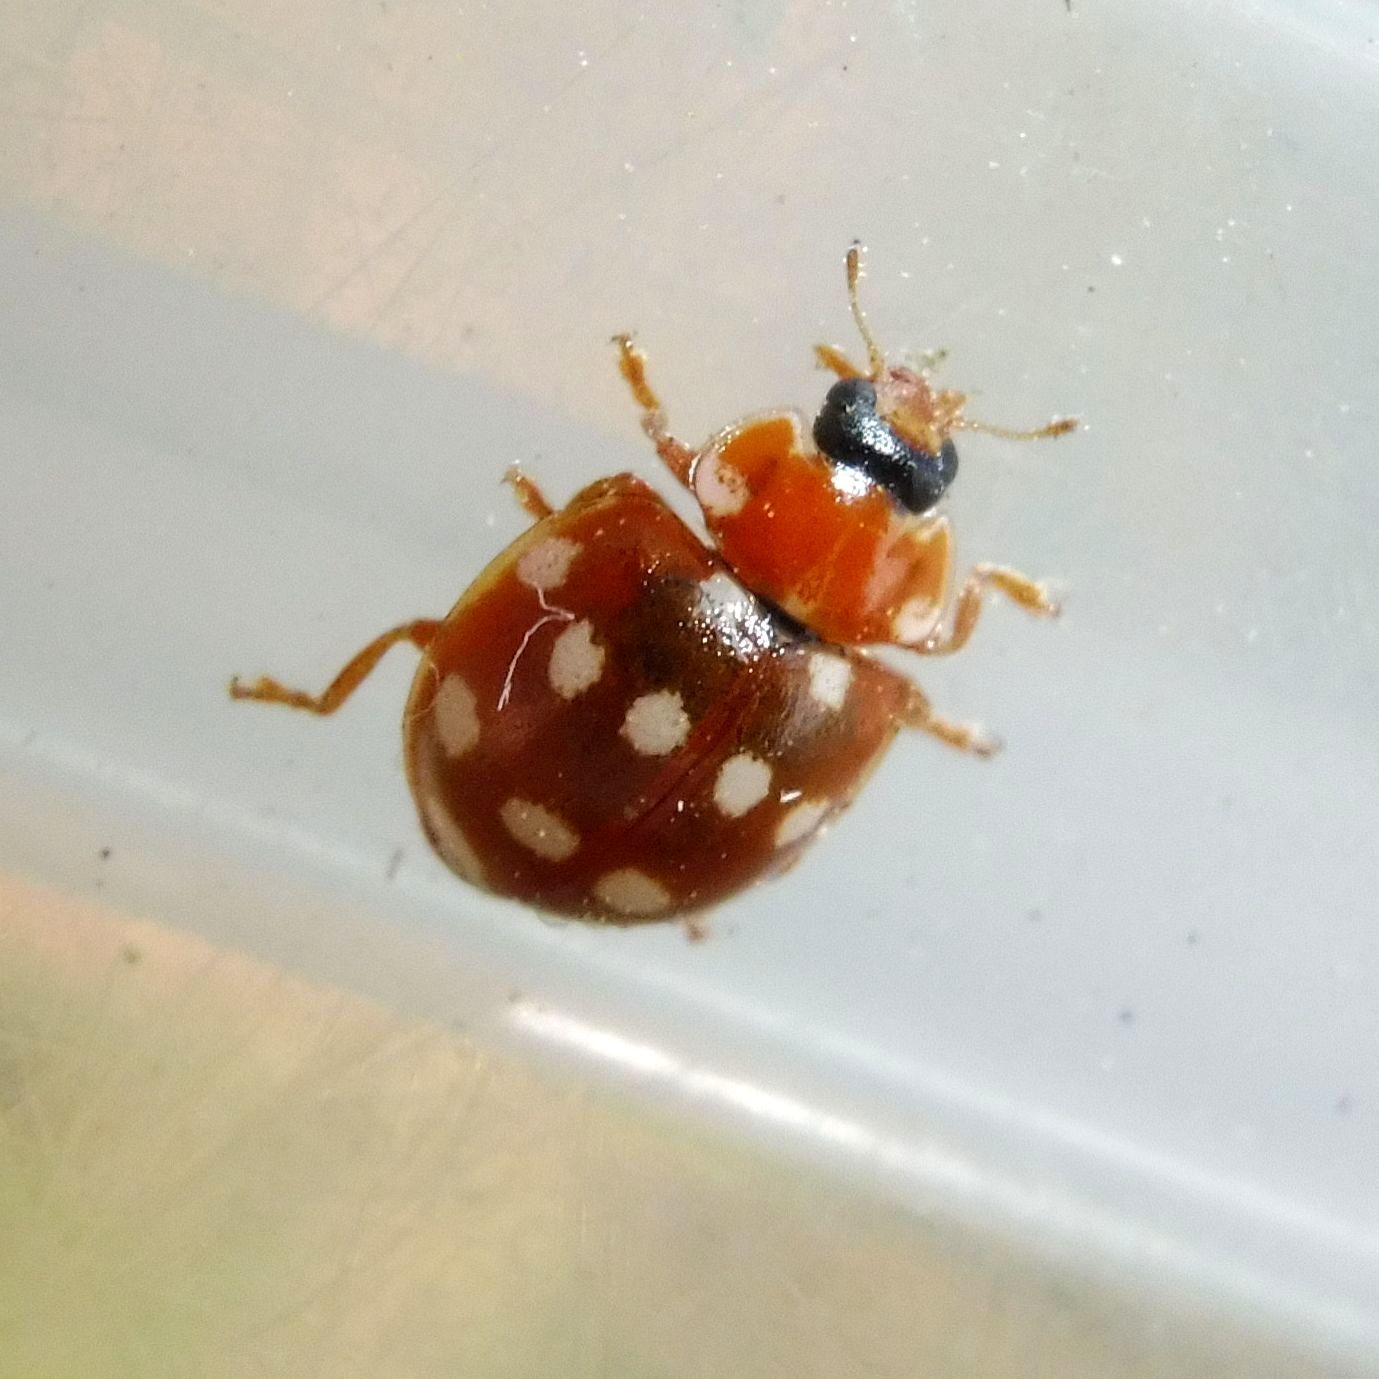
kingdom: Animalia
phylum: Arthropoda
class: Insecta
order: Coleoptera
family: Coccinellidae
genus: Calvia
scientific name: Calvia quatuordecimguttata
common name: Cream-spot ladybird
